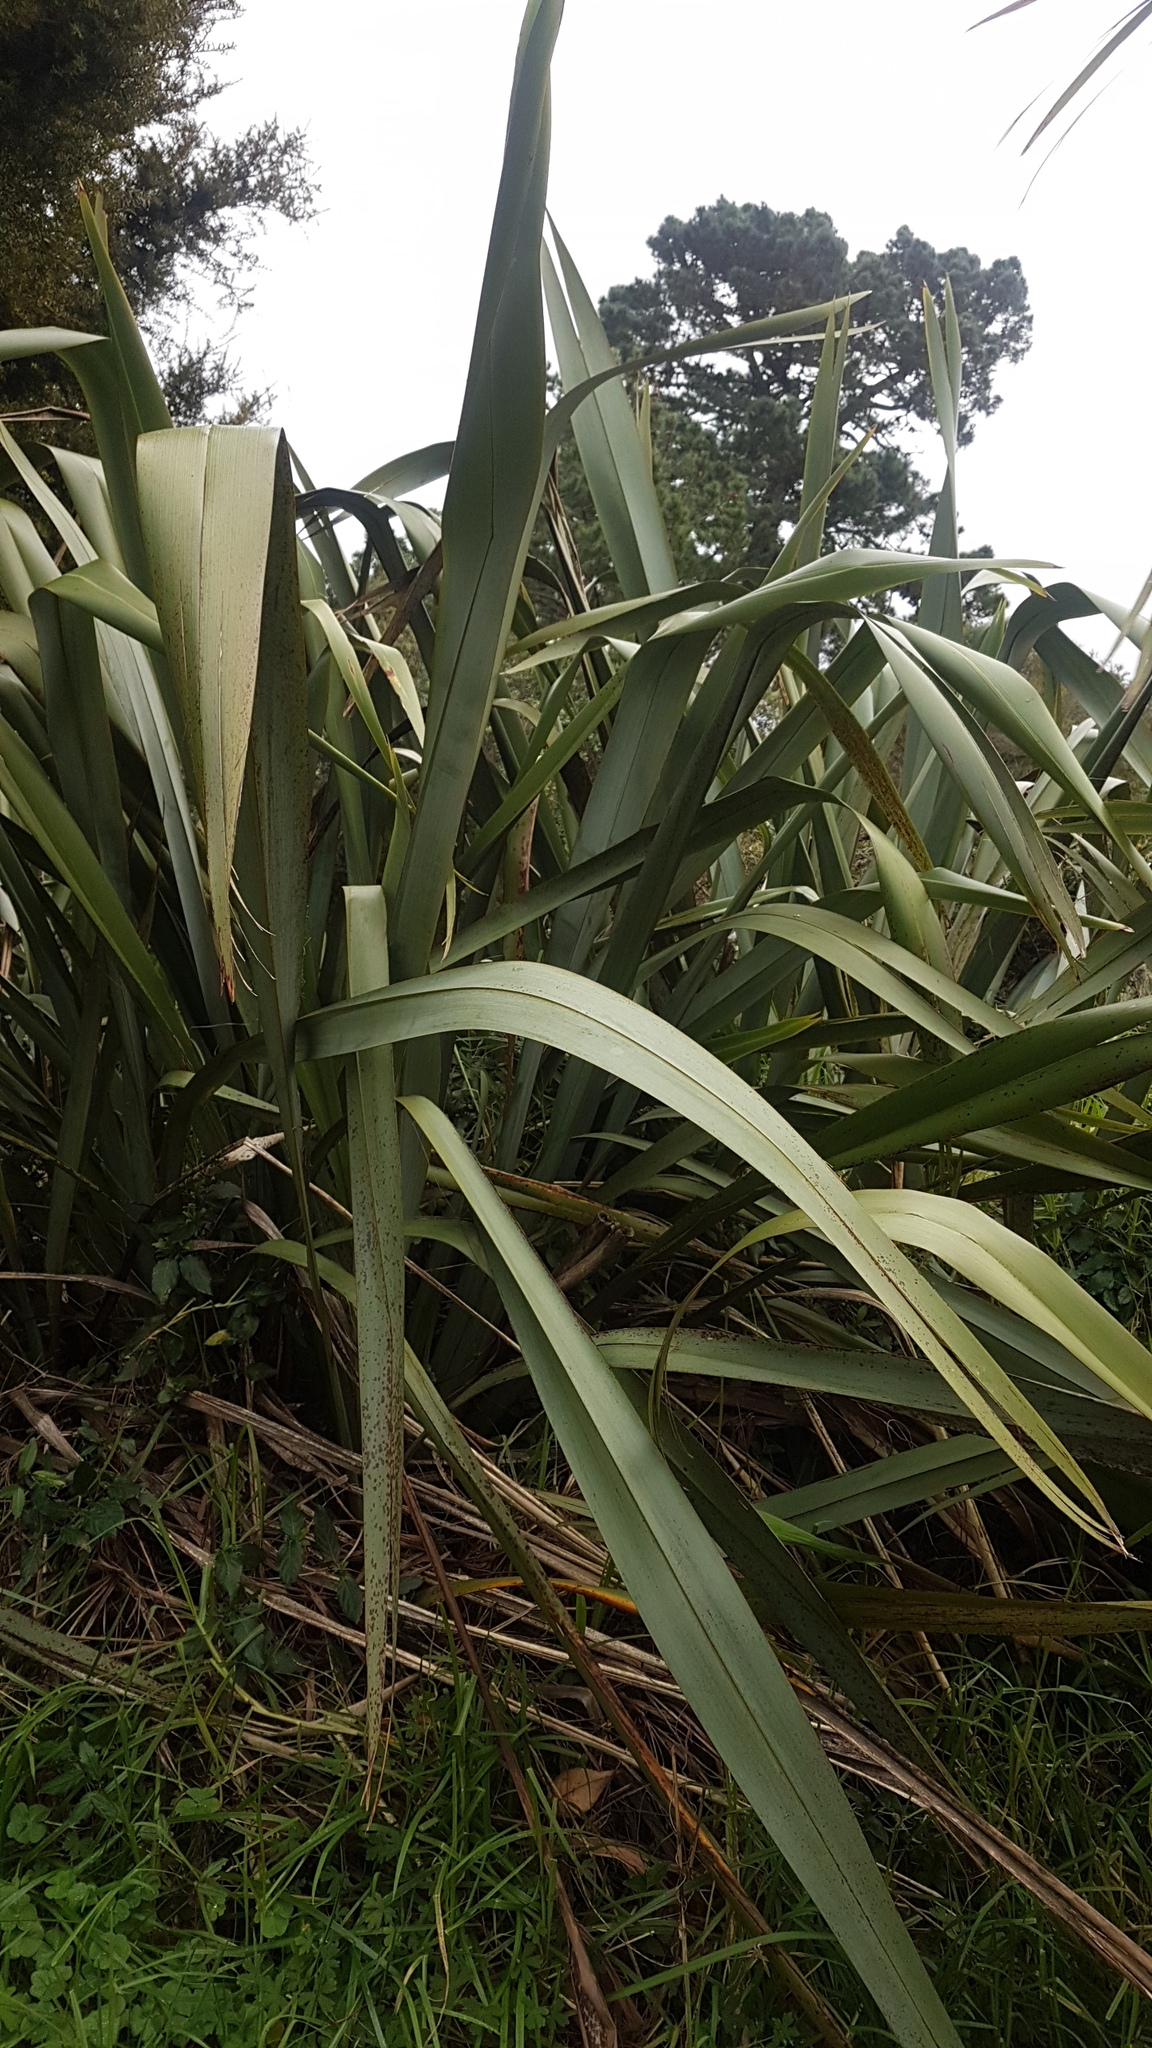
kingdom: Plantae
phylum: Tracheophyta
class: Liliopsida
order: Asparagales
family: Asphodelaceae
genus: Phormium
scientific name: Phormium tenax
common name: New zealand flax
